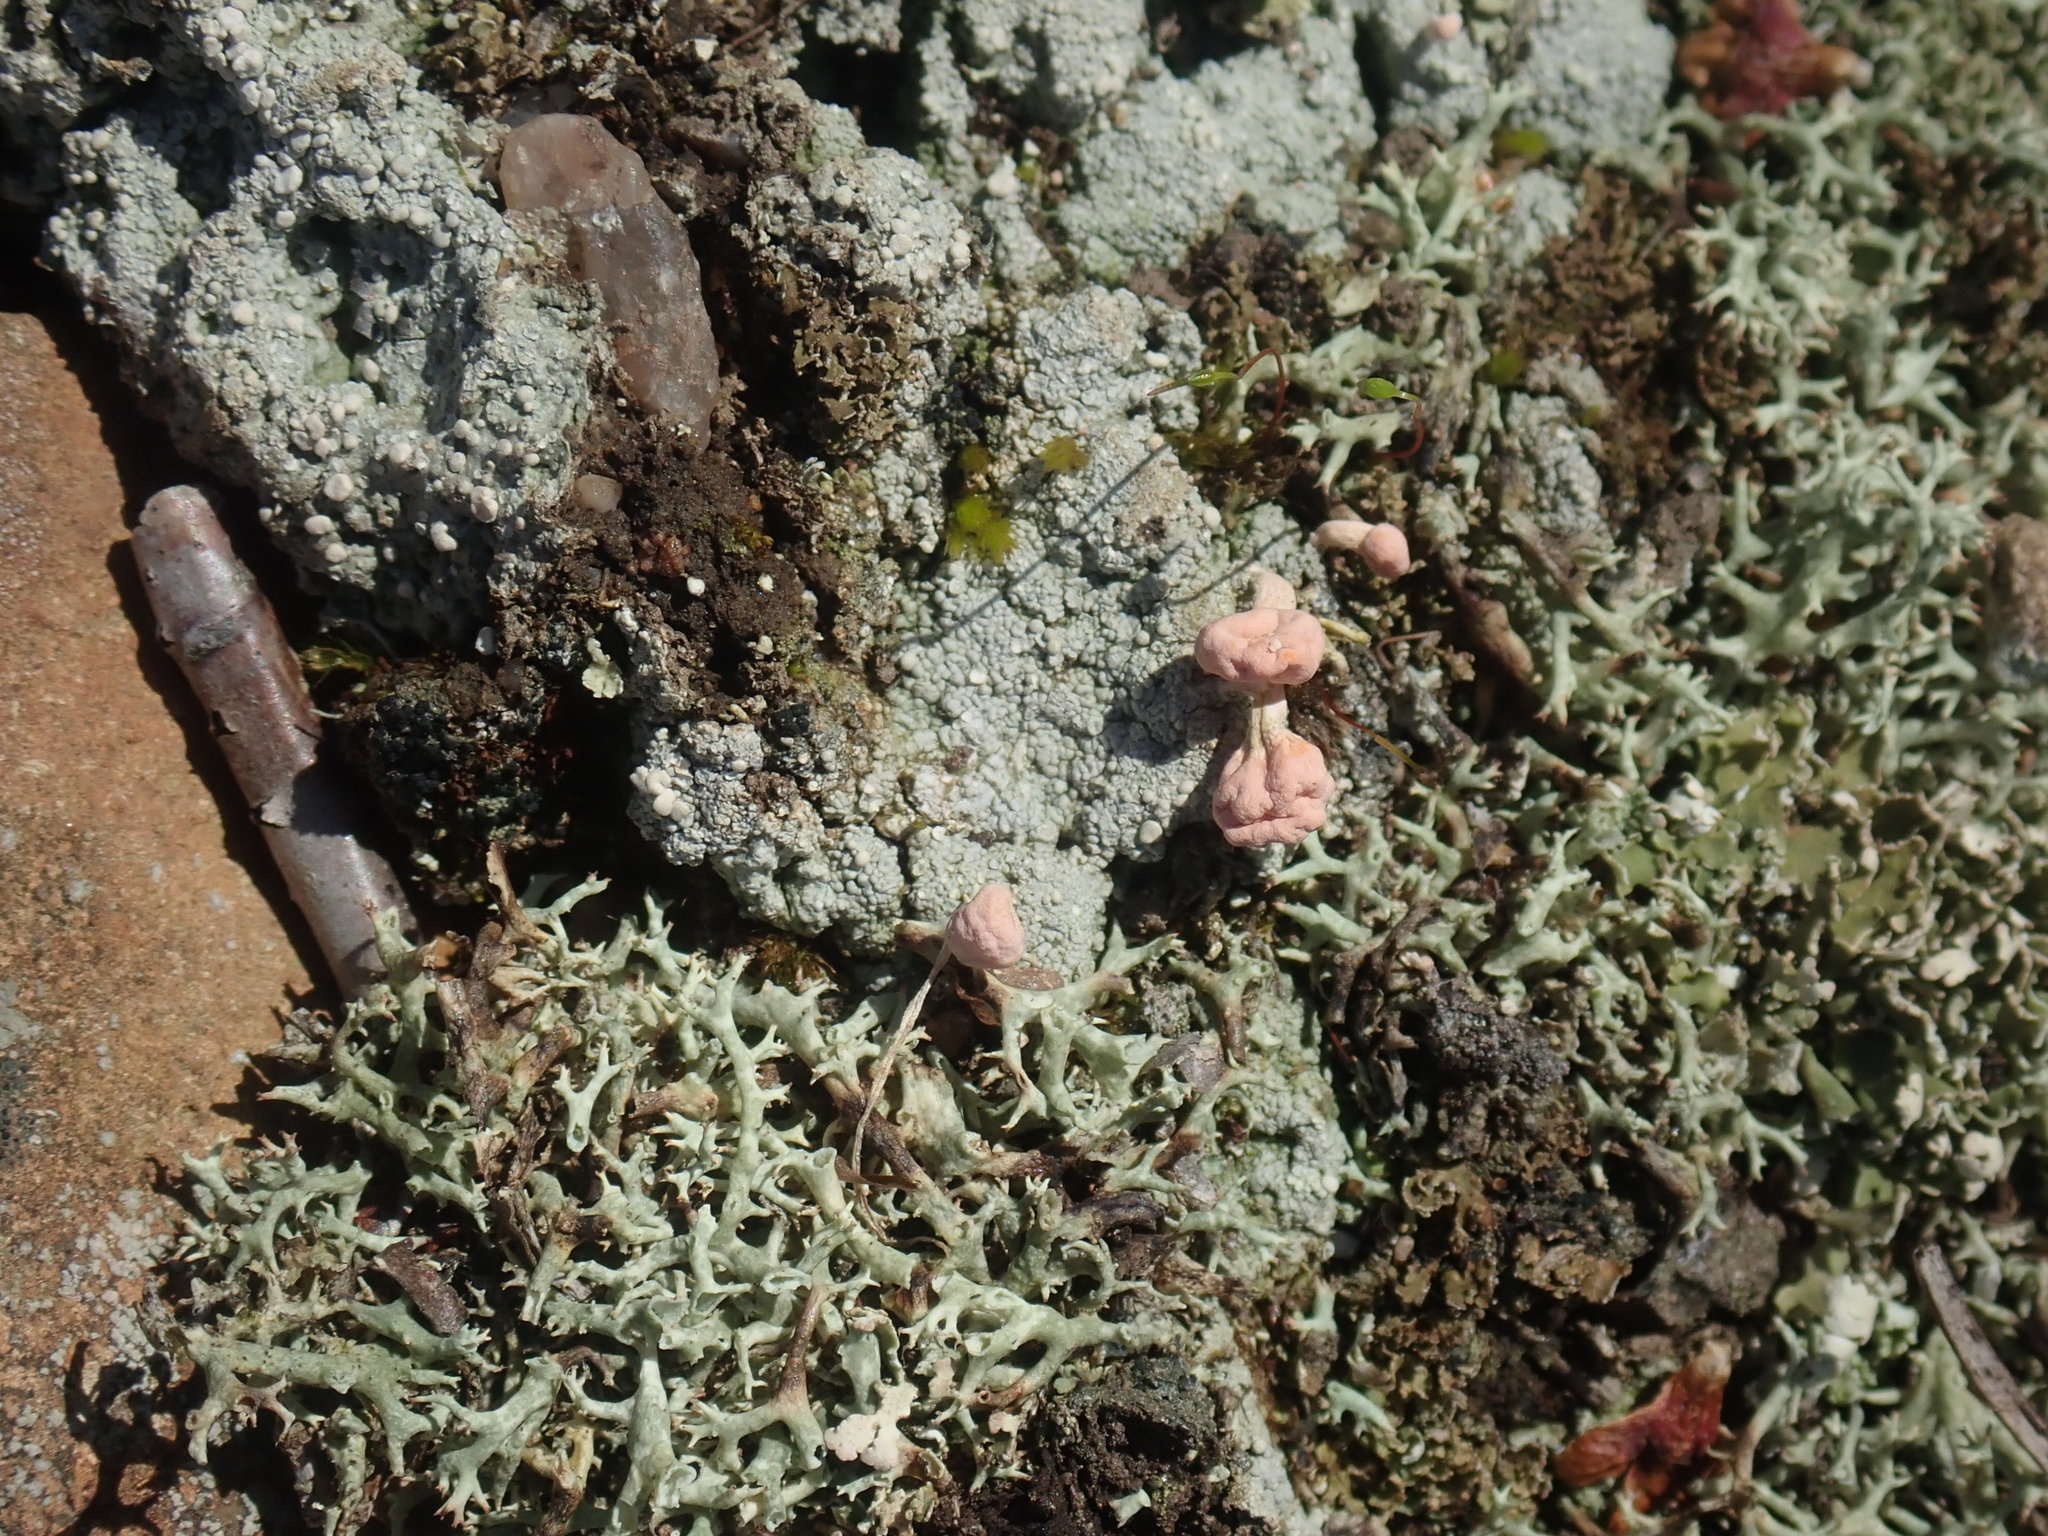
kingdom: Fungi
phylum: Ascomycota
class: Lecanoromycetes
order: Pertusariales
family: Icmadophilaceae
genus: Dibaeis
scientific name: Dibaeis baeomyces
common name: Pink earth lichen
